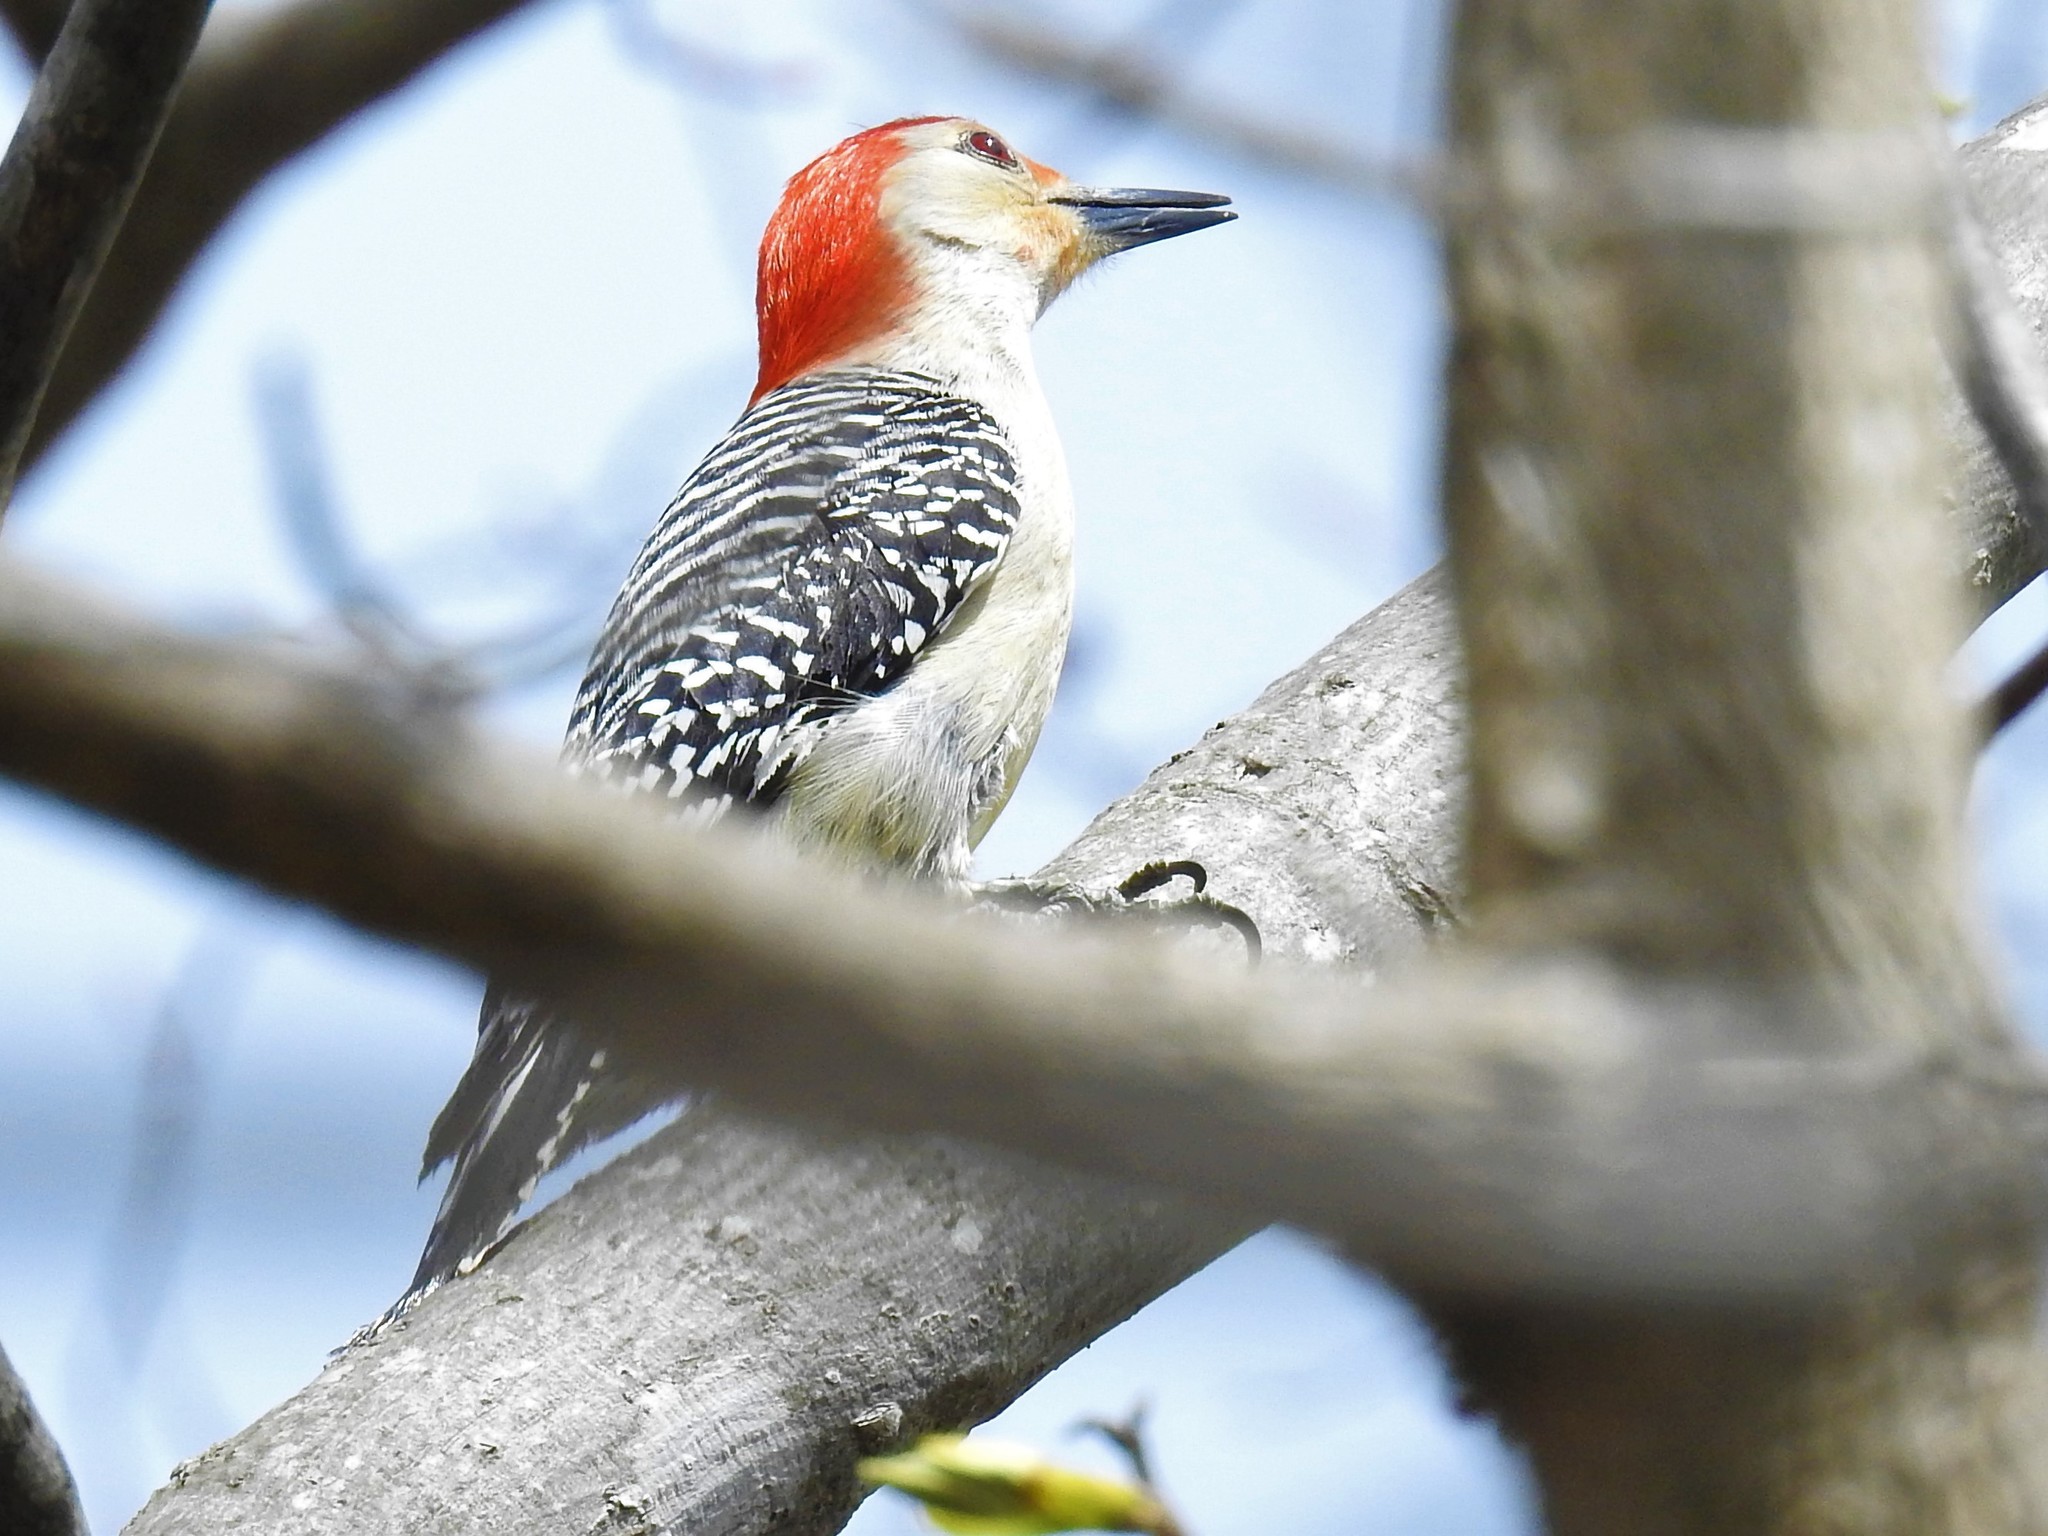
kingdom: Animalia
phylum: Chordata
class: Aves
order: Piciformes
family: Picidae
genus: Melanerpes
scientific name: Melanerpes carolinus
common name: Red-bellied woodpecker
